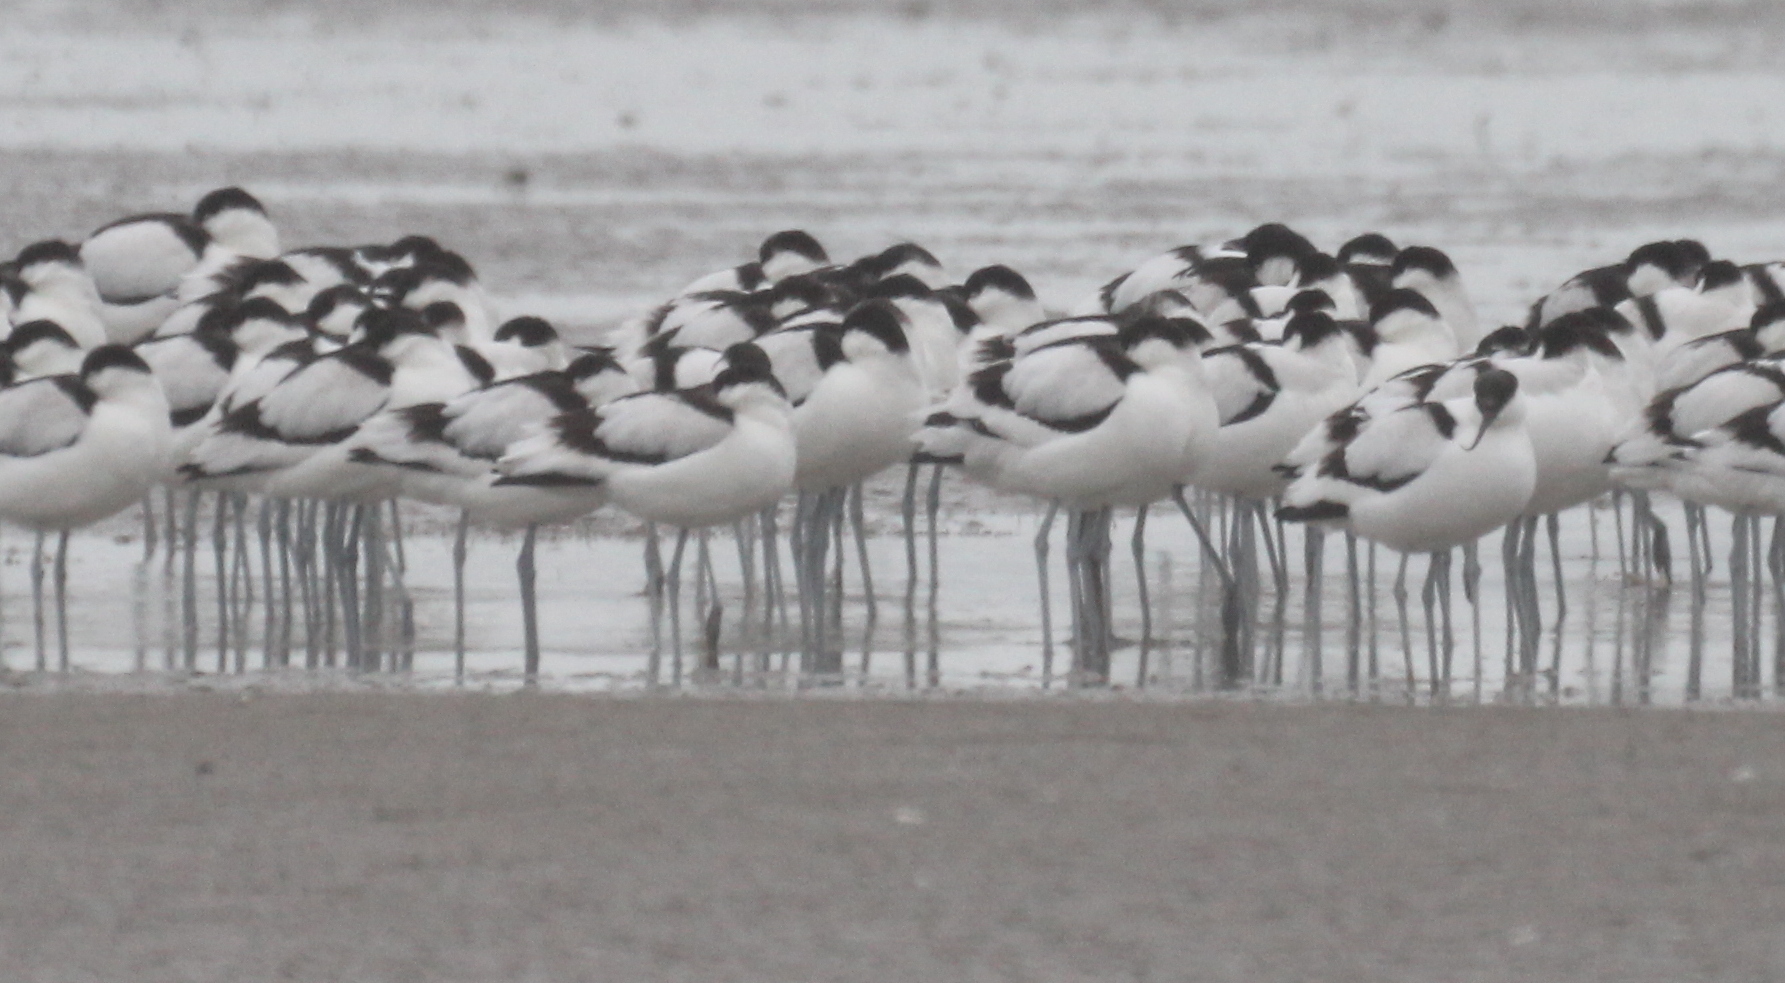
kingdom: Animalia
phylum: Chordata
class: Aves
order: Charadriiformes
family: Recurvirostridae
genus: Recurvirostra
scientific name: Recurvirostra avosetta
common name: Pied avocet
